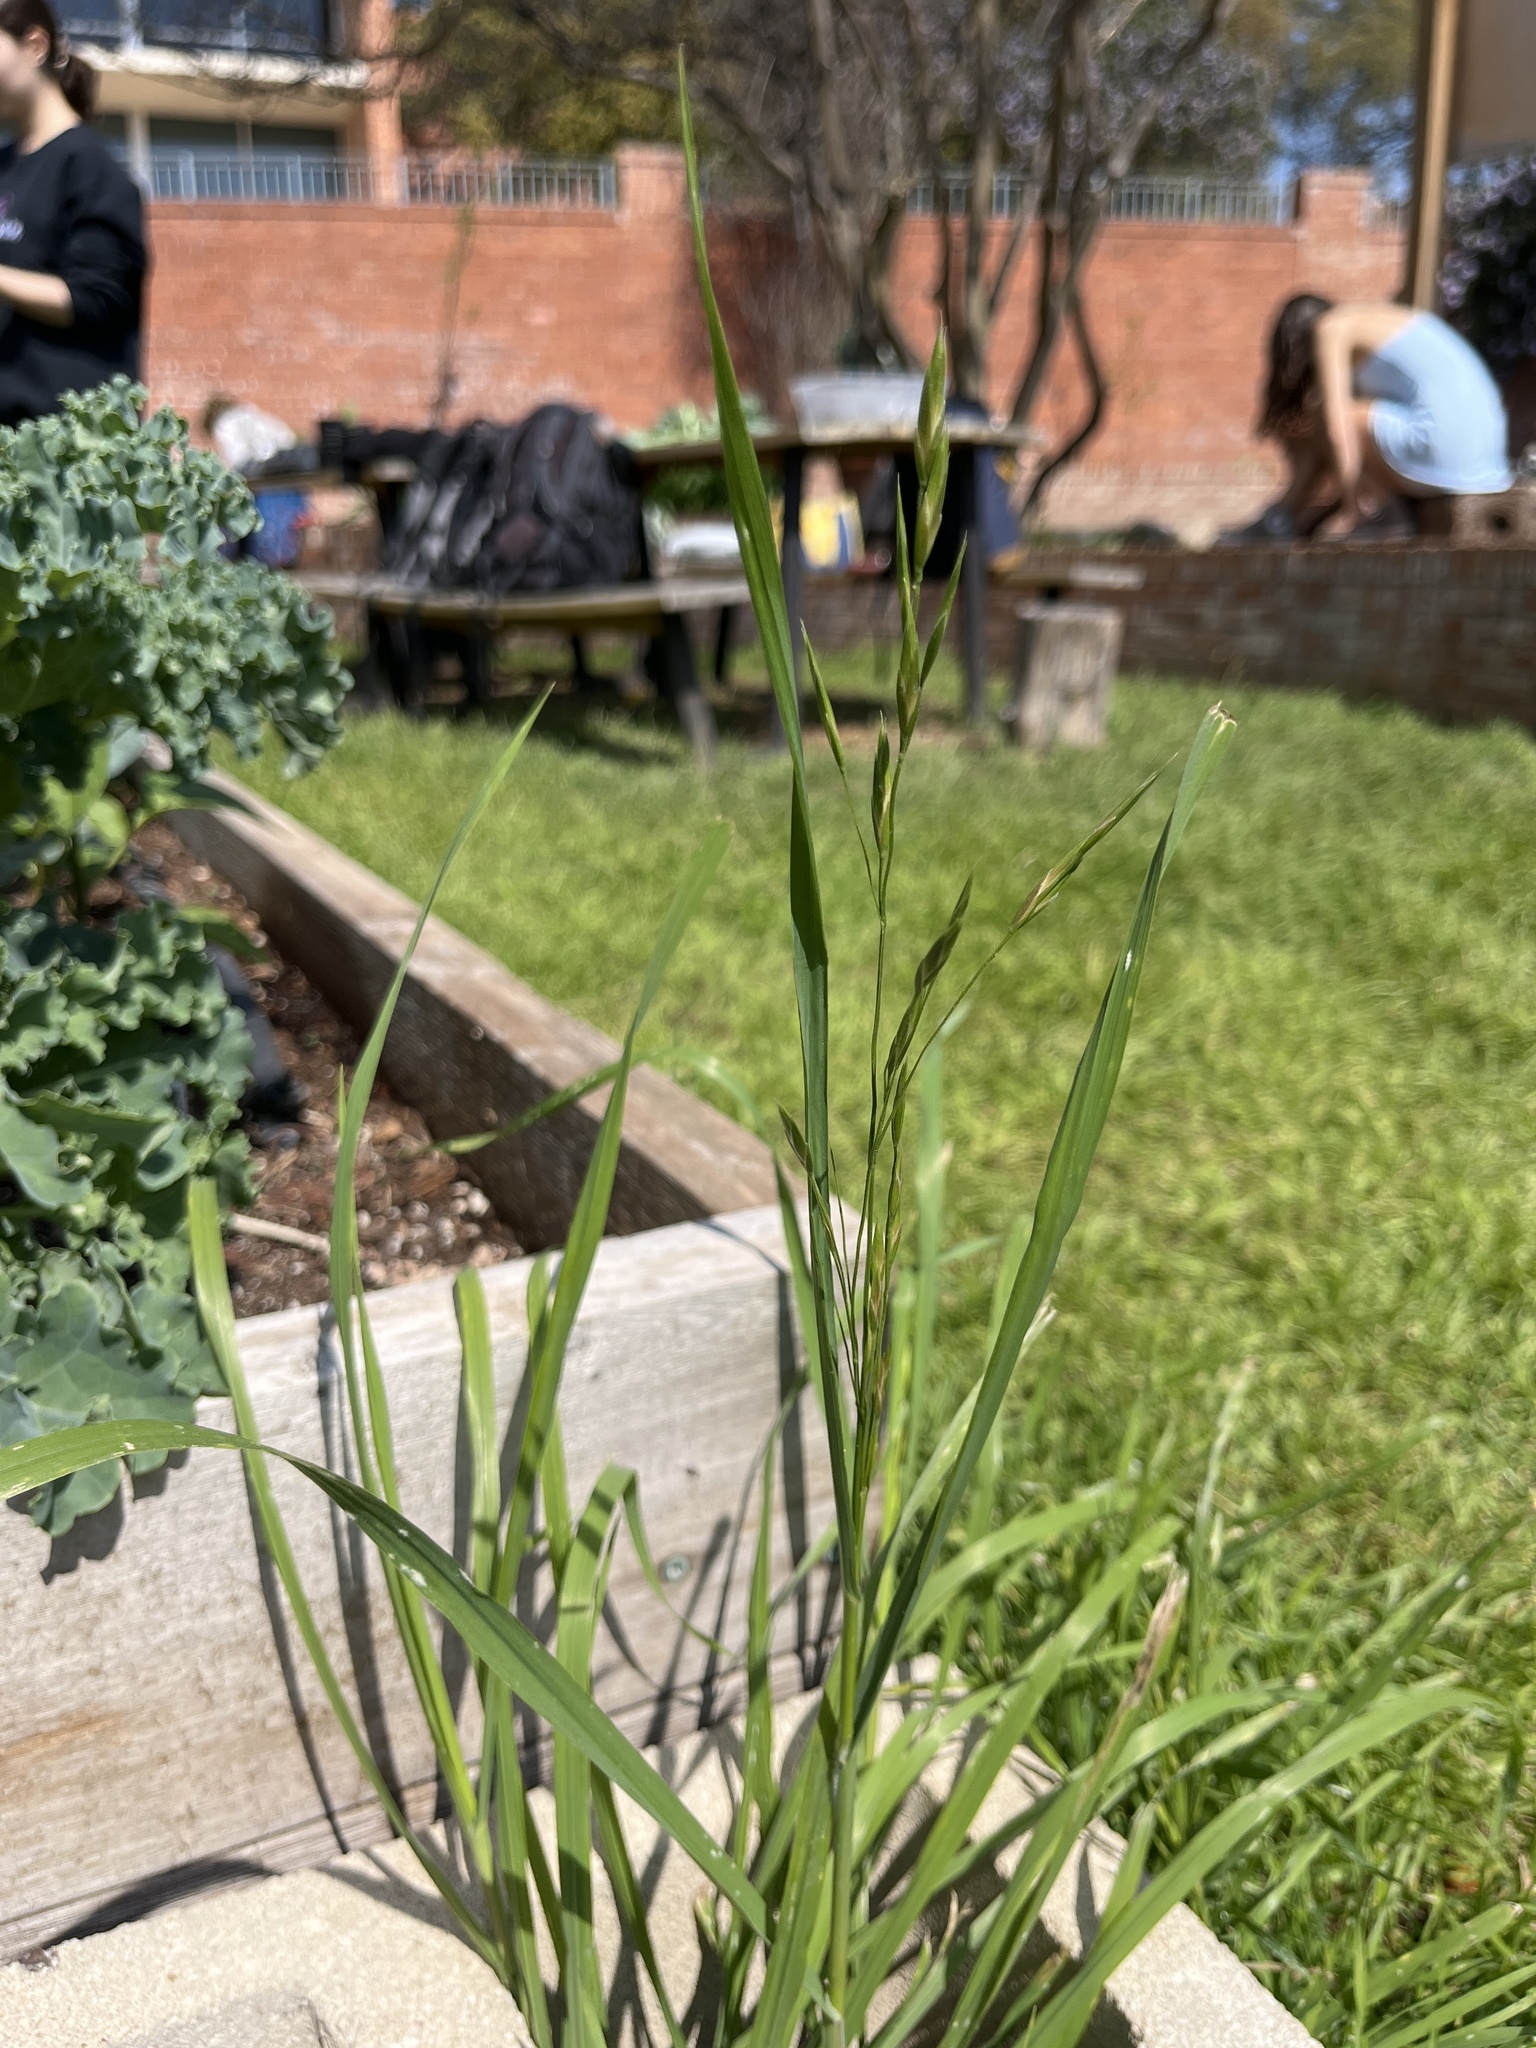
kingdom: Plantae
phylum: Tracheophyta
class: Liliopsida
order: Poales
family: Poaceae
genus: Bromus
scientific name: Bromus catharticus
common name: Rescuegrass
